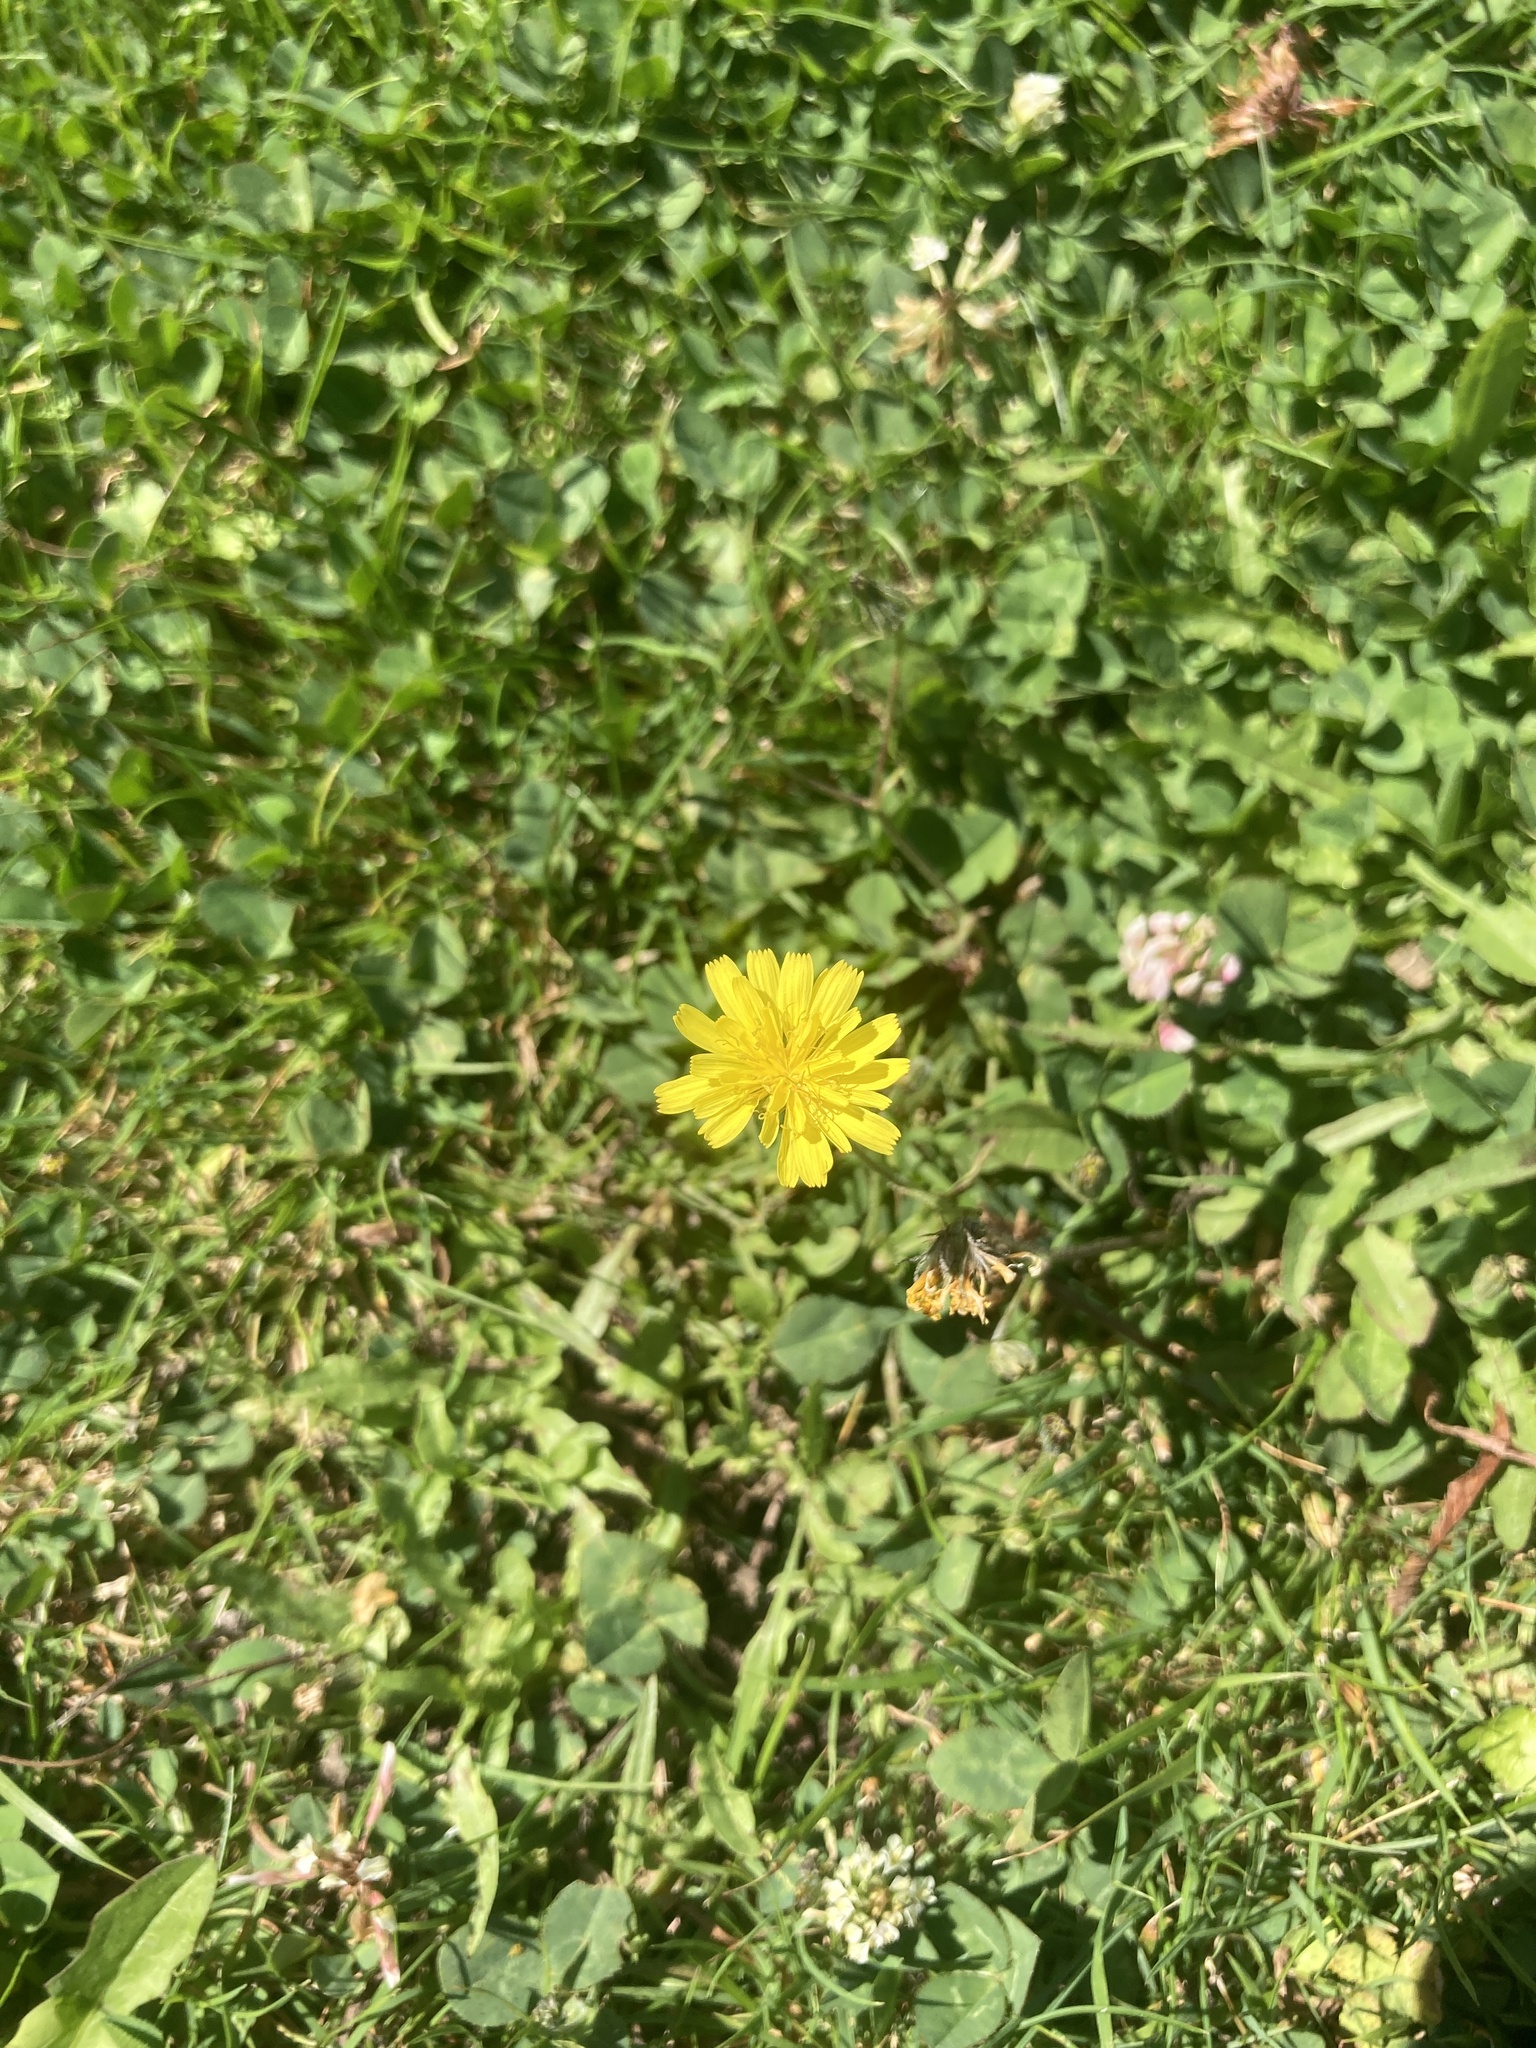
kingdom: Plantae
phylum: Tracheophyta
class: Magnoliopsida
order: Asterales
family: Asteraceae
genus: Taraxacum
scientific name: Taraxacum officinale
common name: Common dandelion
